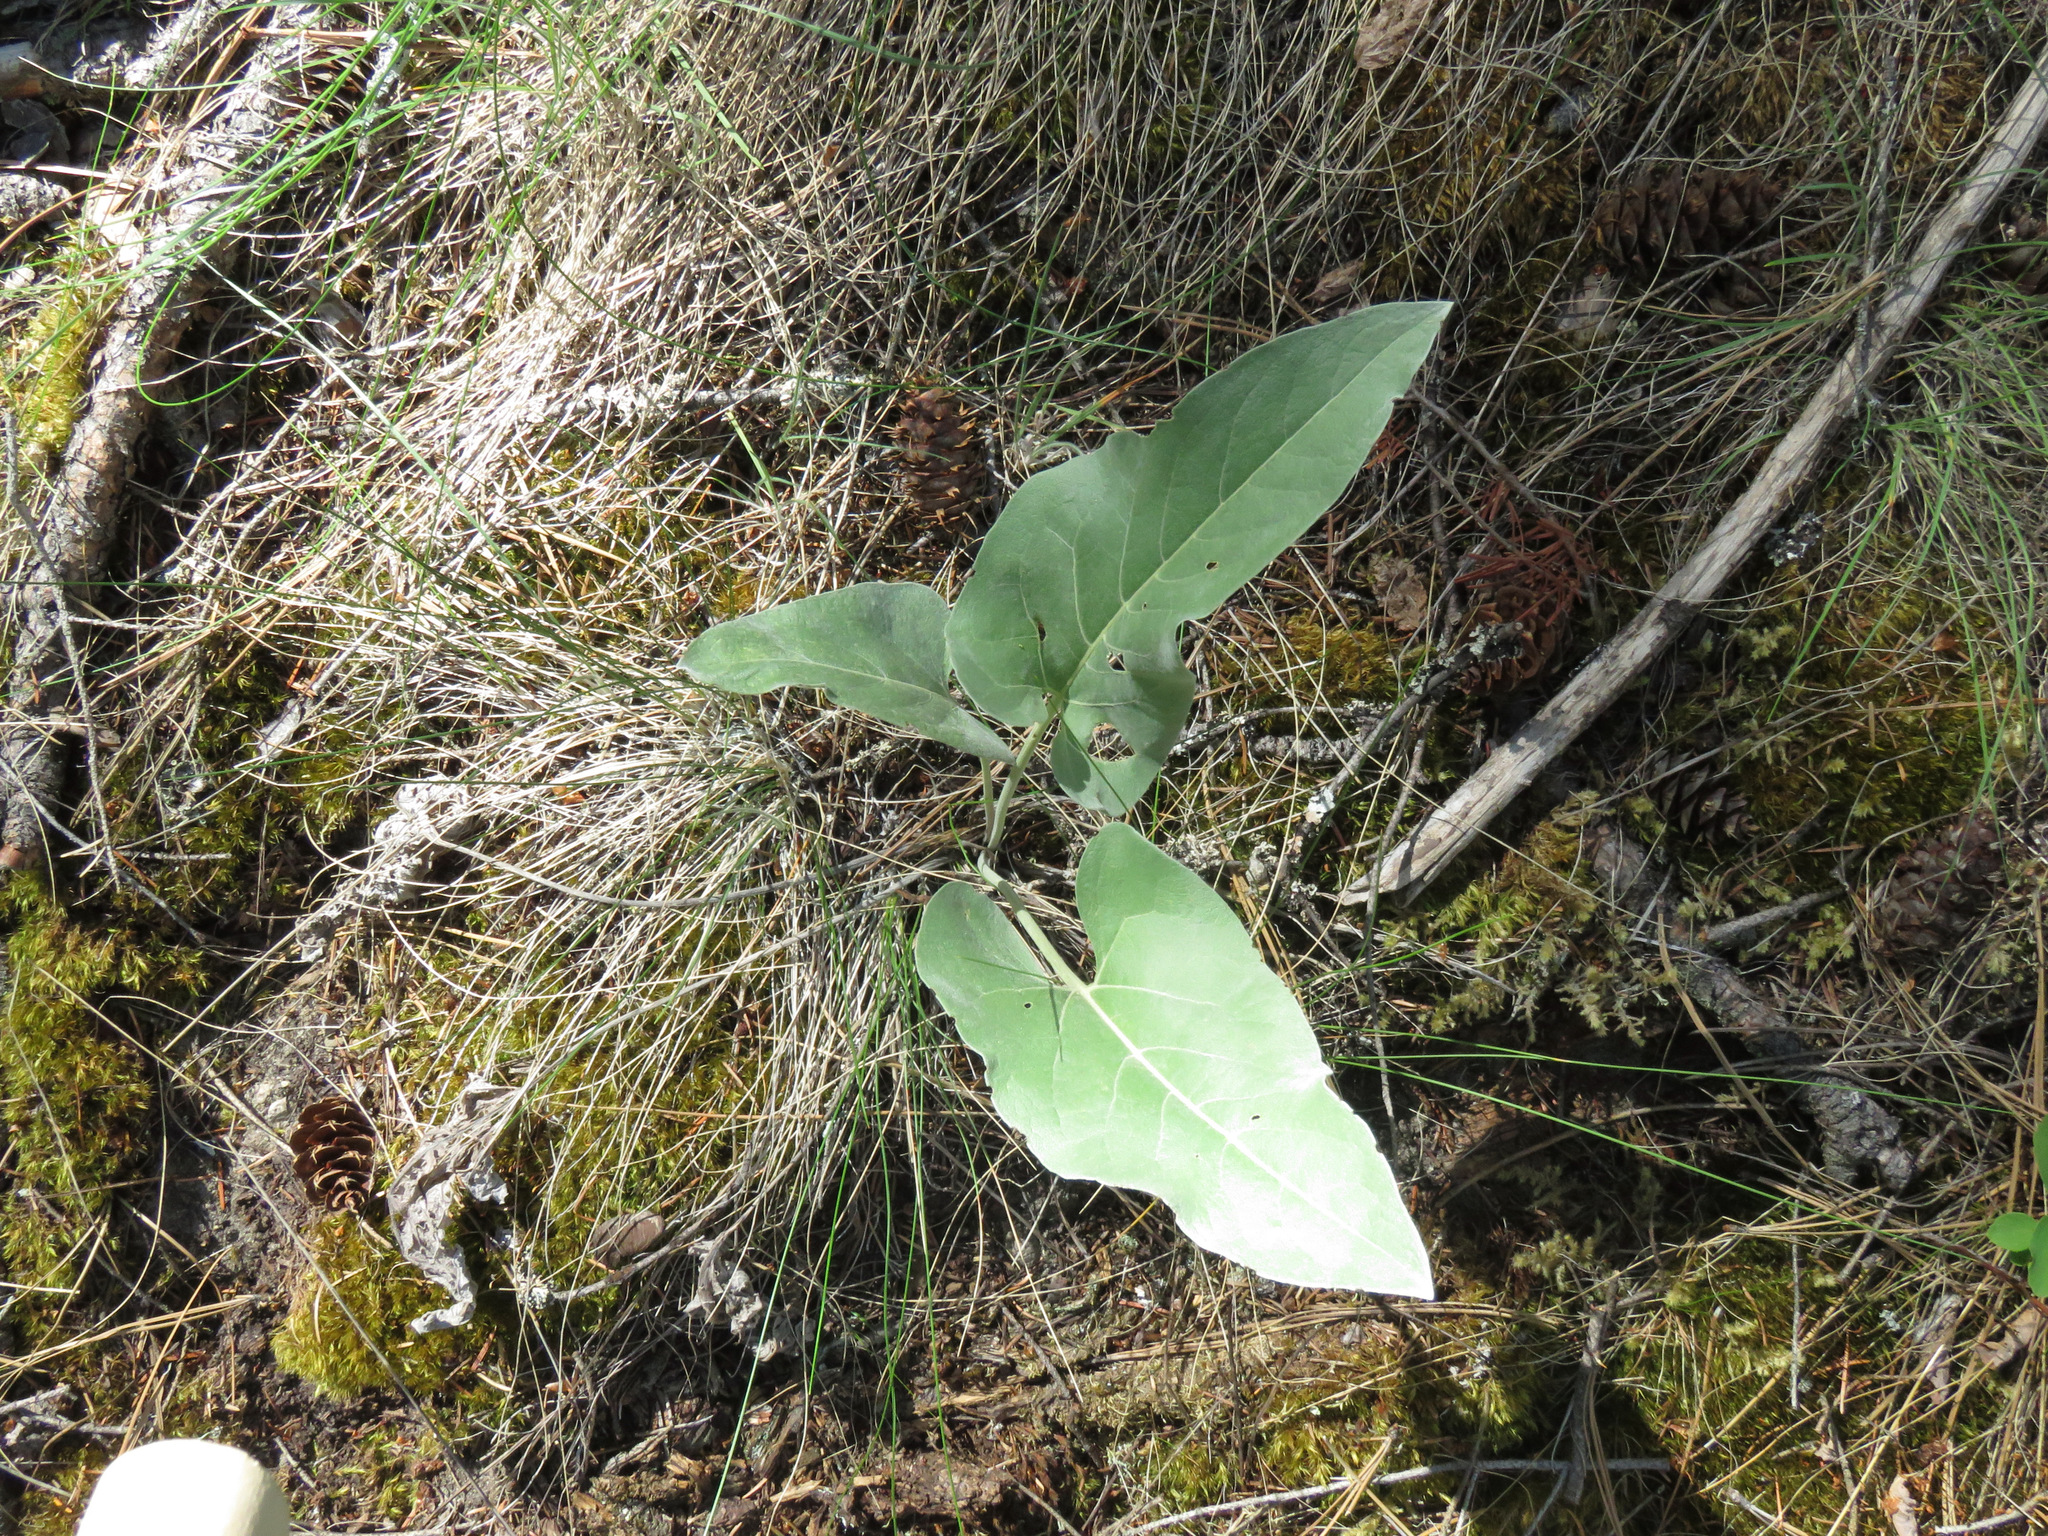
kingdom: Plantae
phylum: Tracheophyta
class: Magnoliopsida
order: Asterales
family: Asteraceae
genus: Wyethia
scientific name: Wyethia sagittata
